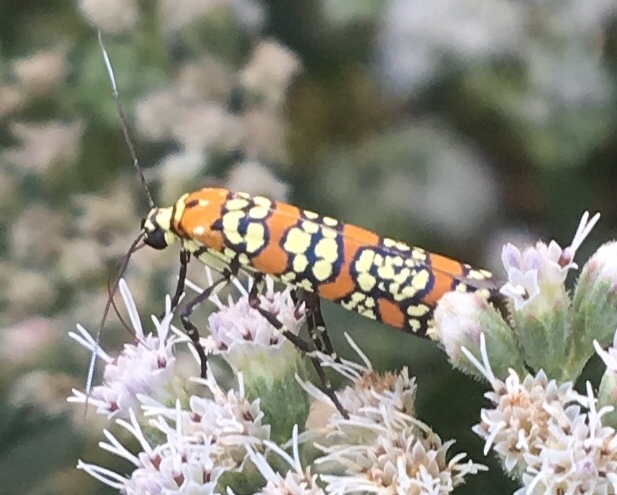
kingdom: Animalia
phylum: Arthropoda
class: Insecta
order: Lepidoptera
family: Attevidae
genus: Atteva
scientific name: Atteva punctella
